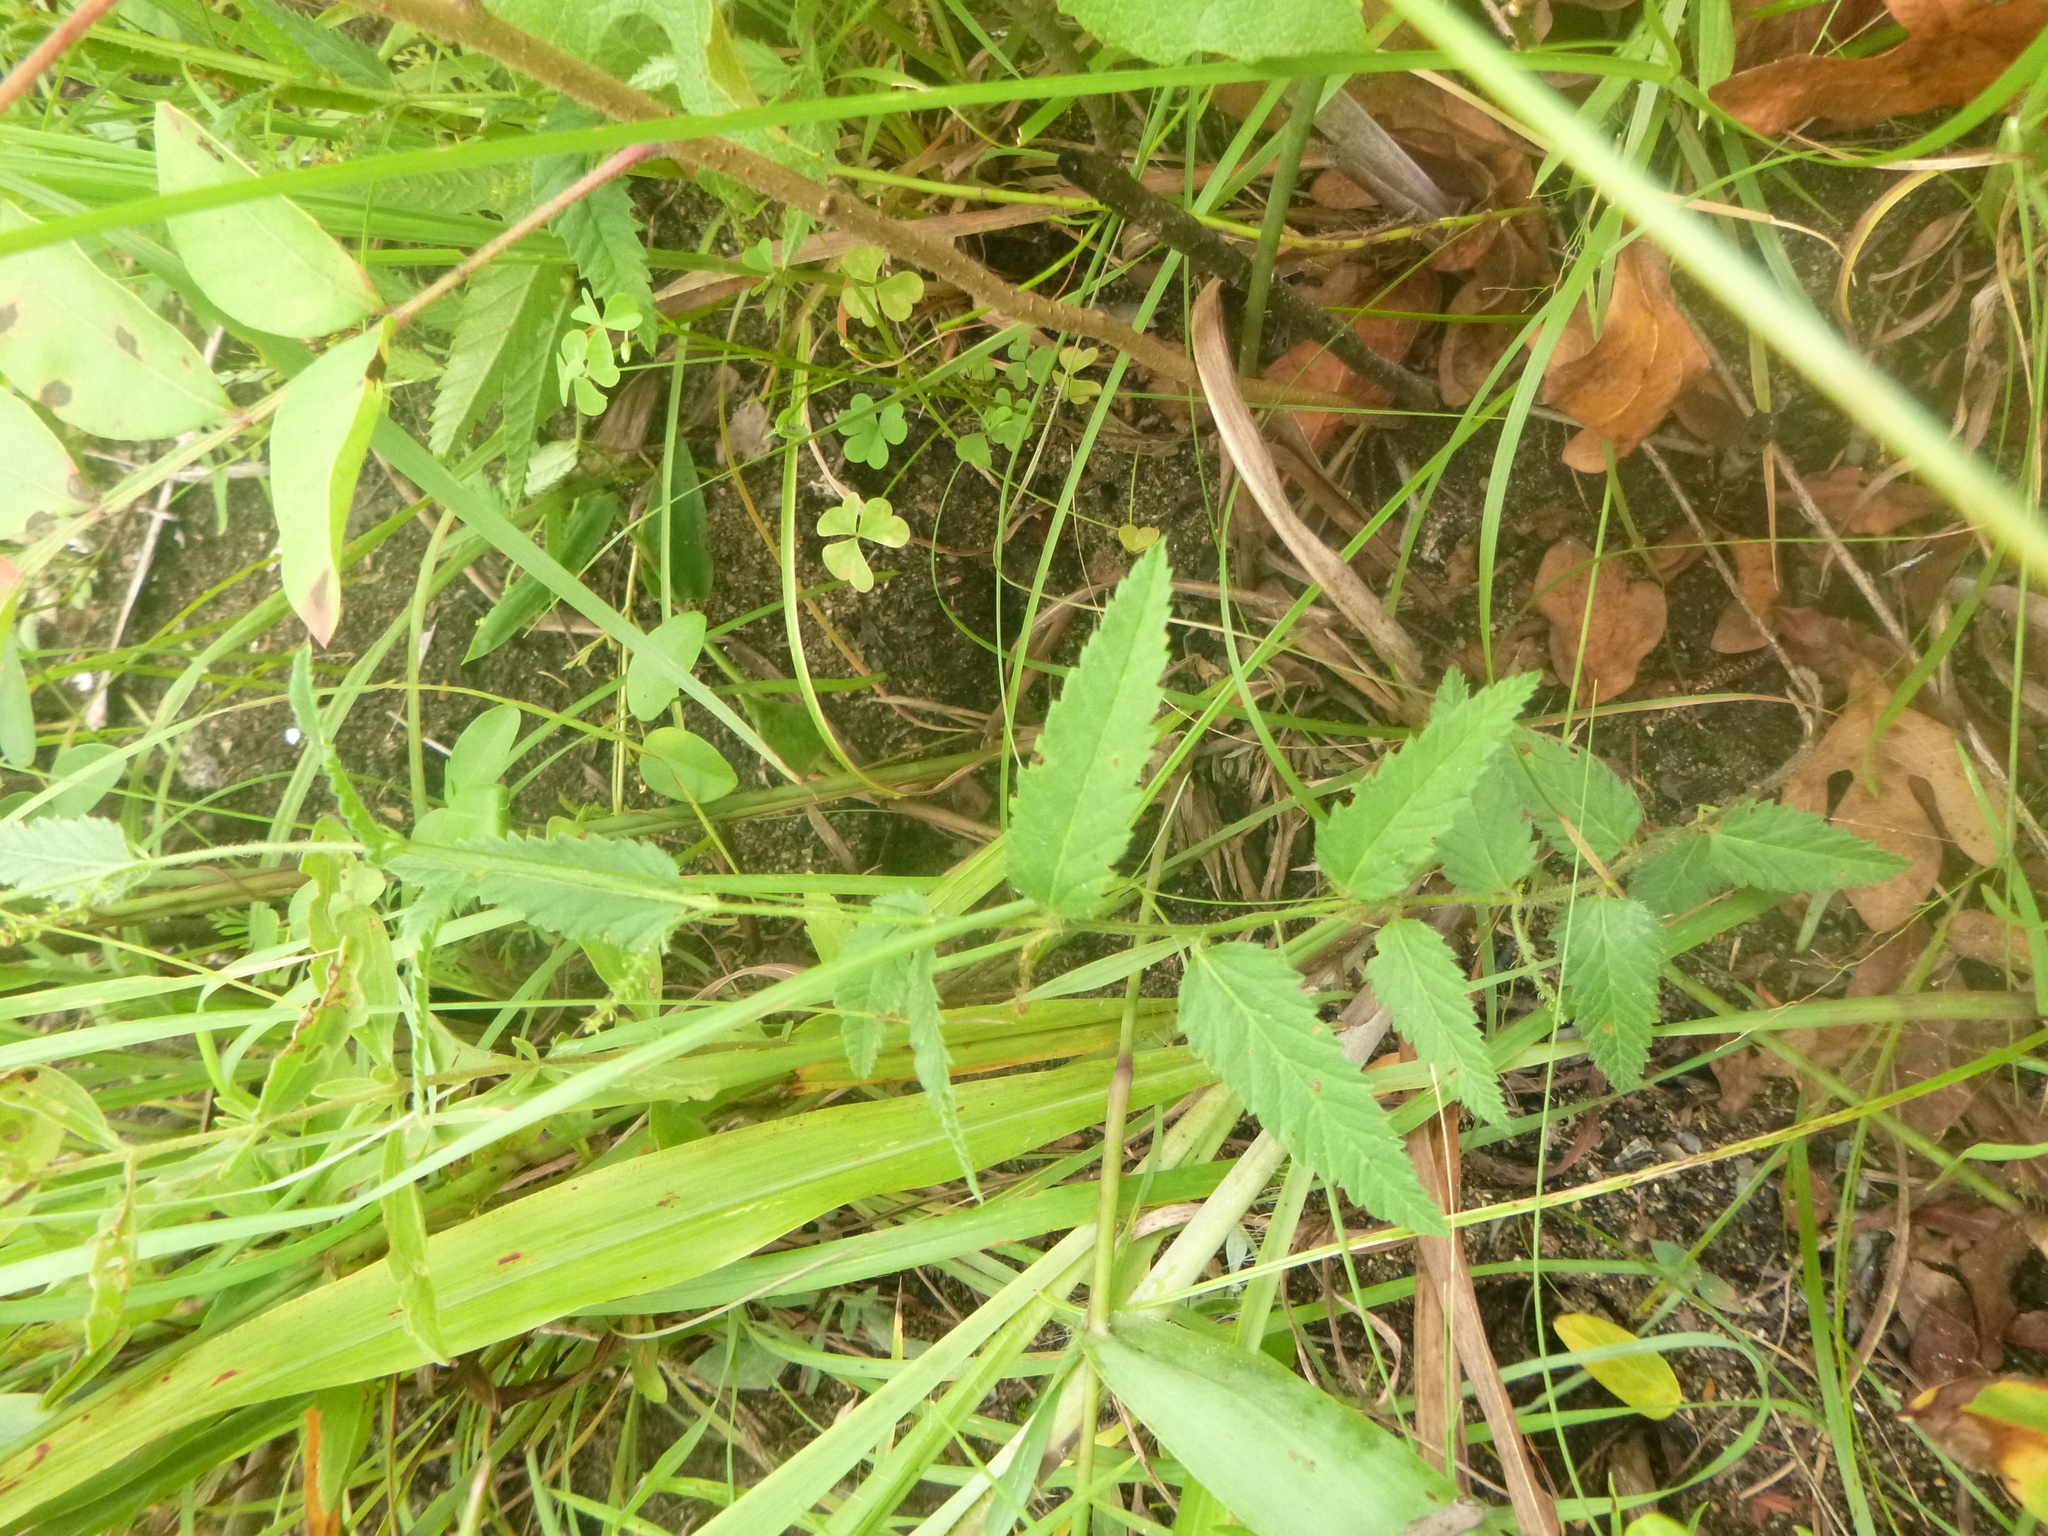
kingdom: Plantae
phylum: Tracheophyta
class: Magnoliopsida
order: Malpighiales
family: Euphorbiaceae
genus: Tragia
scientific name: Tragia urticifolia
